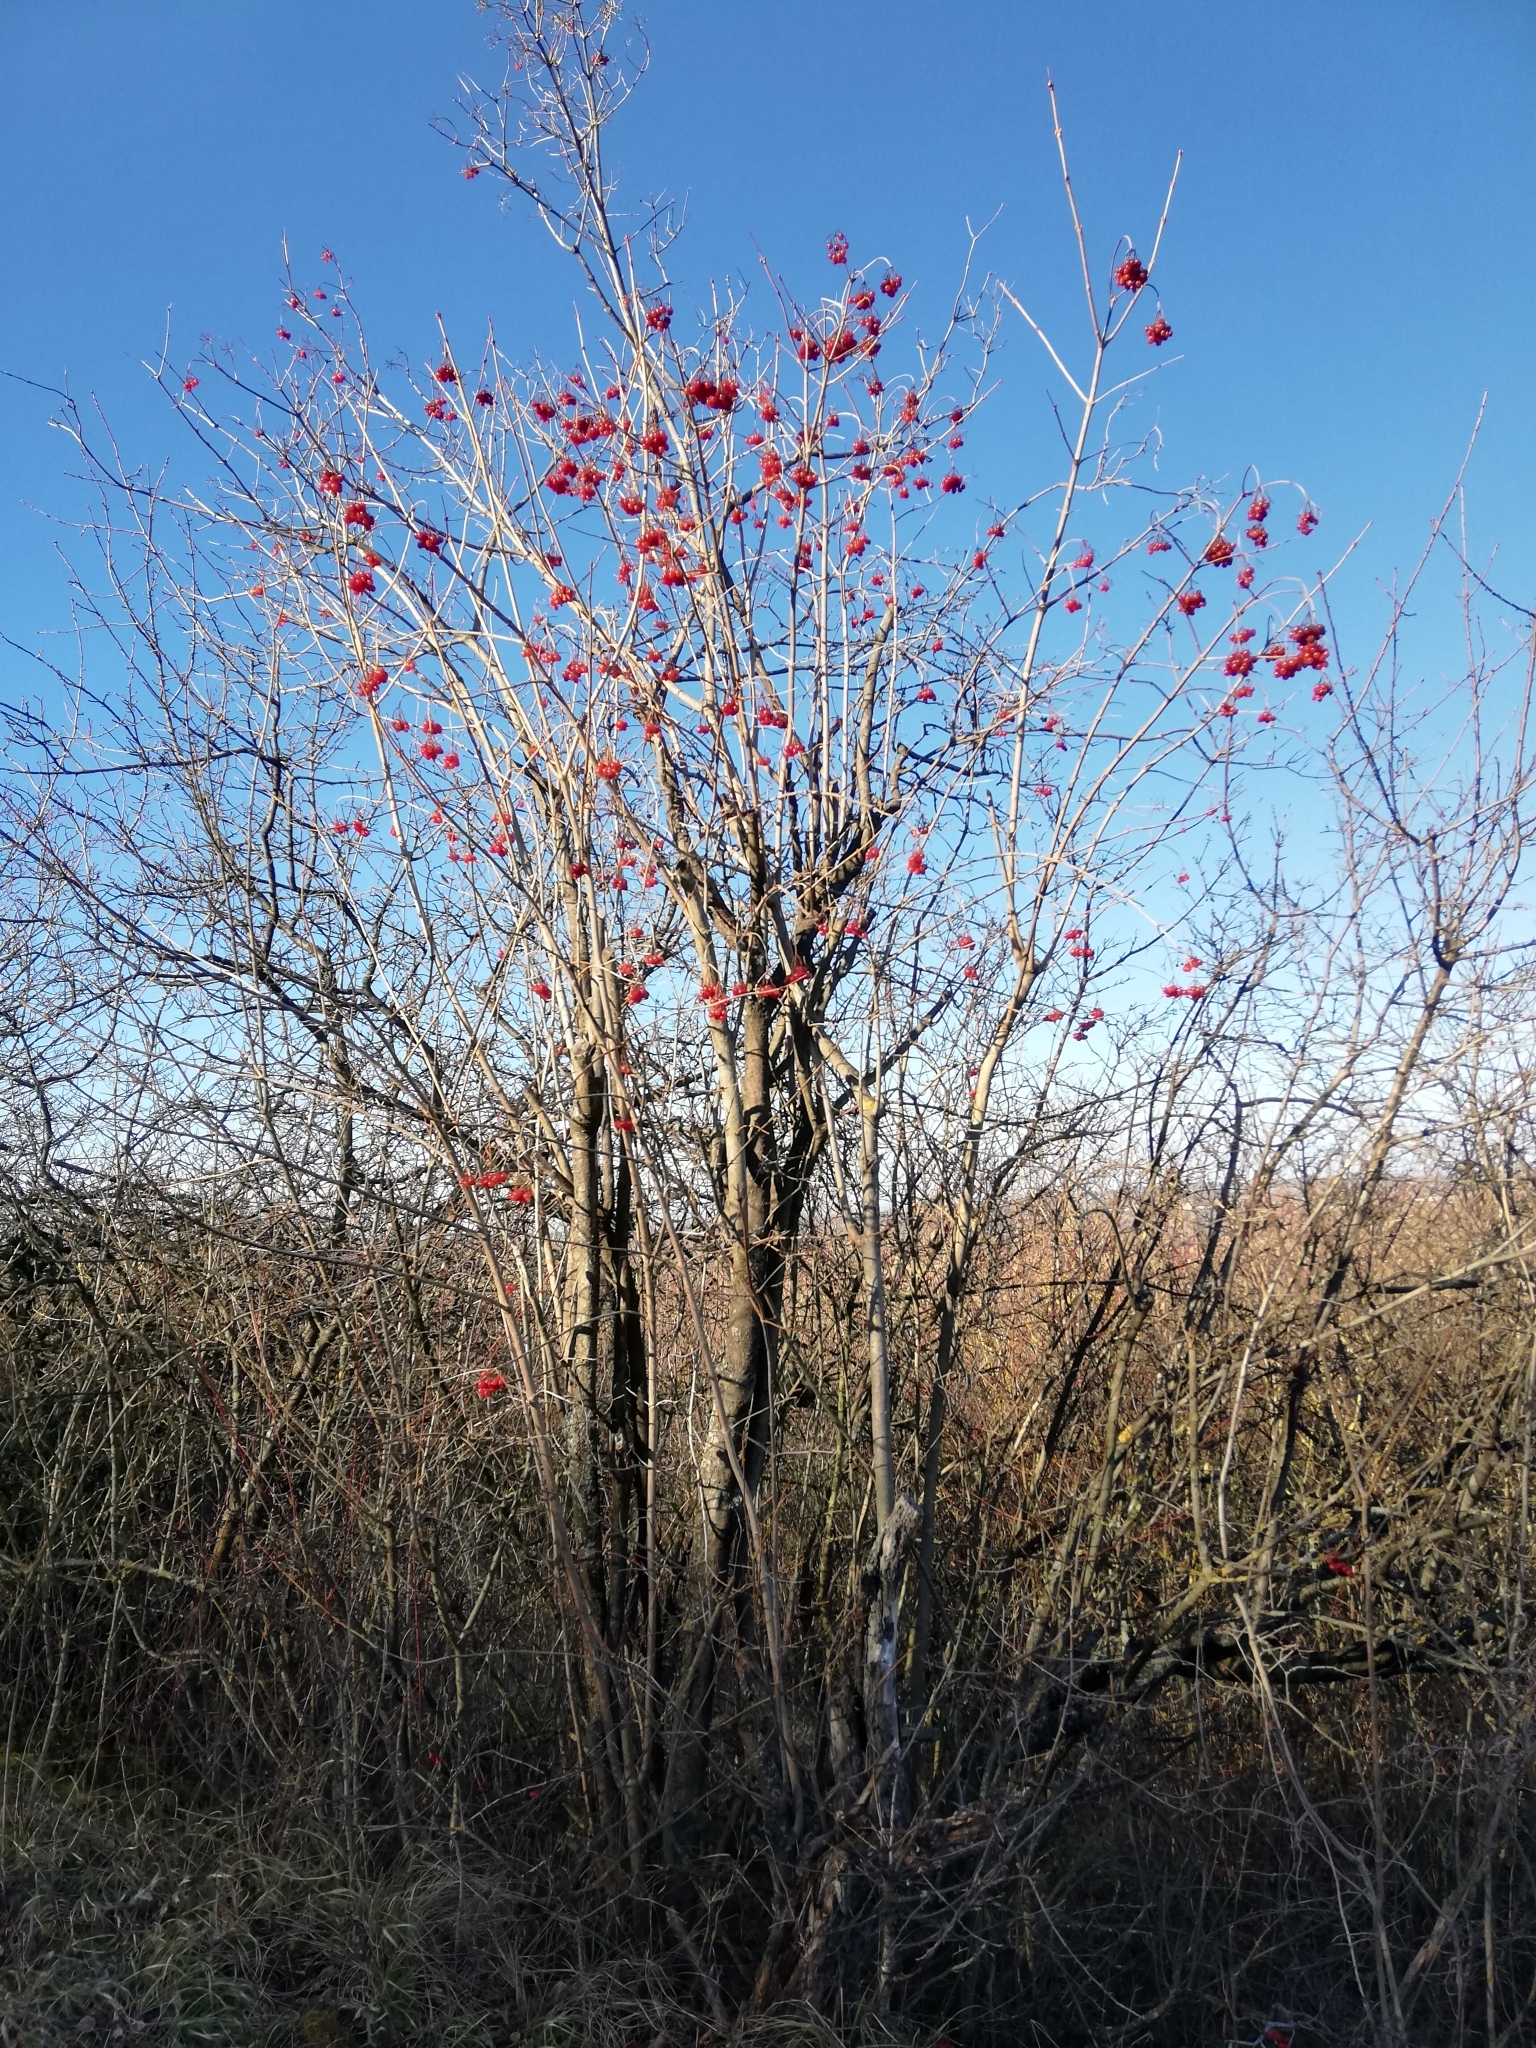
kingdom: Plantae
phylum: Tracheophyta
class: Magnoliopsida
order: Dipsacales
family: Viburnaceae
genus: Viburnum
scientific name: Viburnum opulus
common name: Guelder-rose
